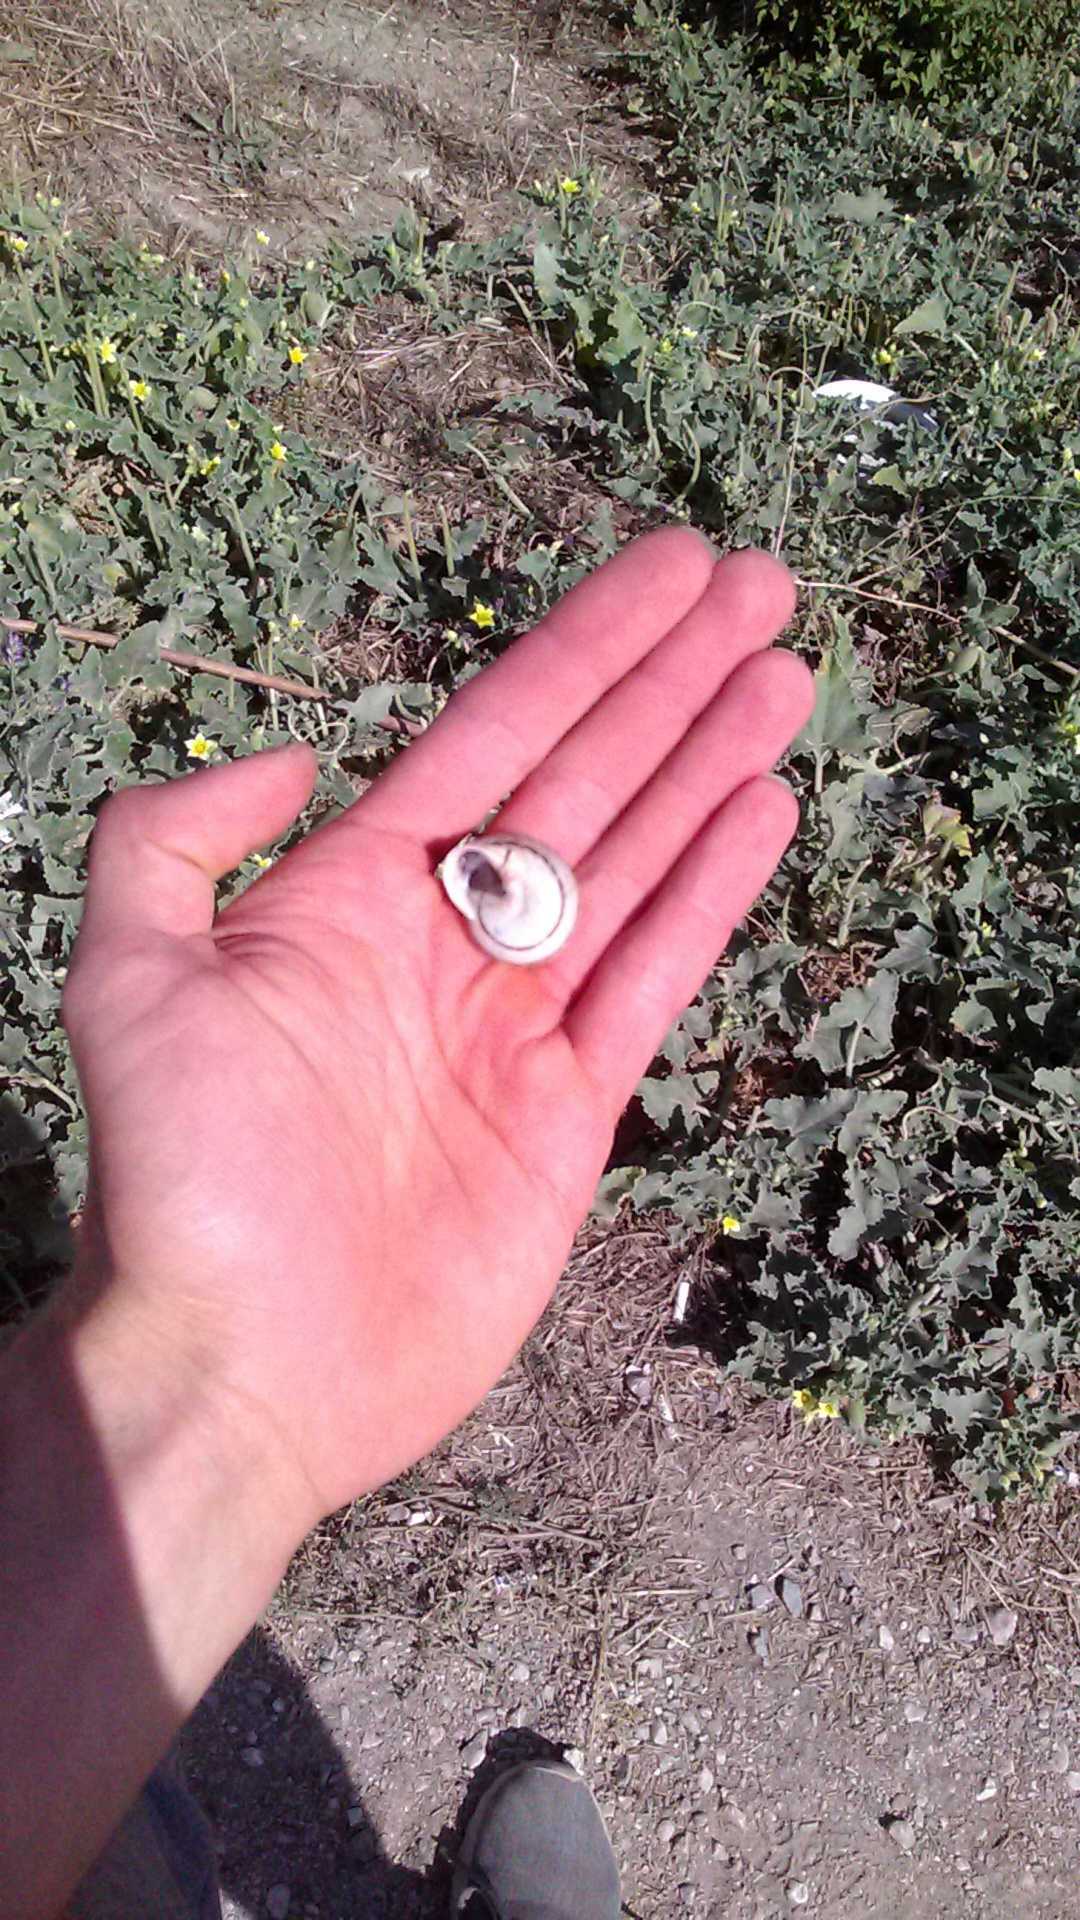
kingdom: Animalia
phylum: Mollusca
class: Gastropoda
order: Stylommatophora
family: Helicidae
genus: Eobania
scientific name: Eobania vermiculata
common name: Chocolateband snail
